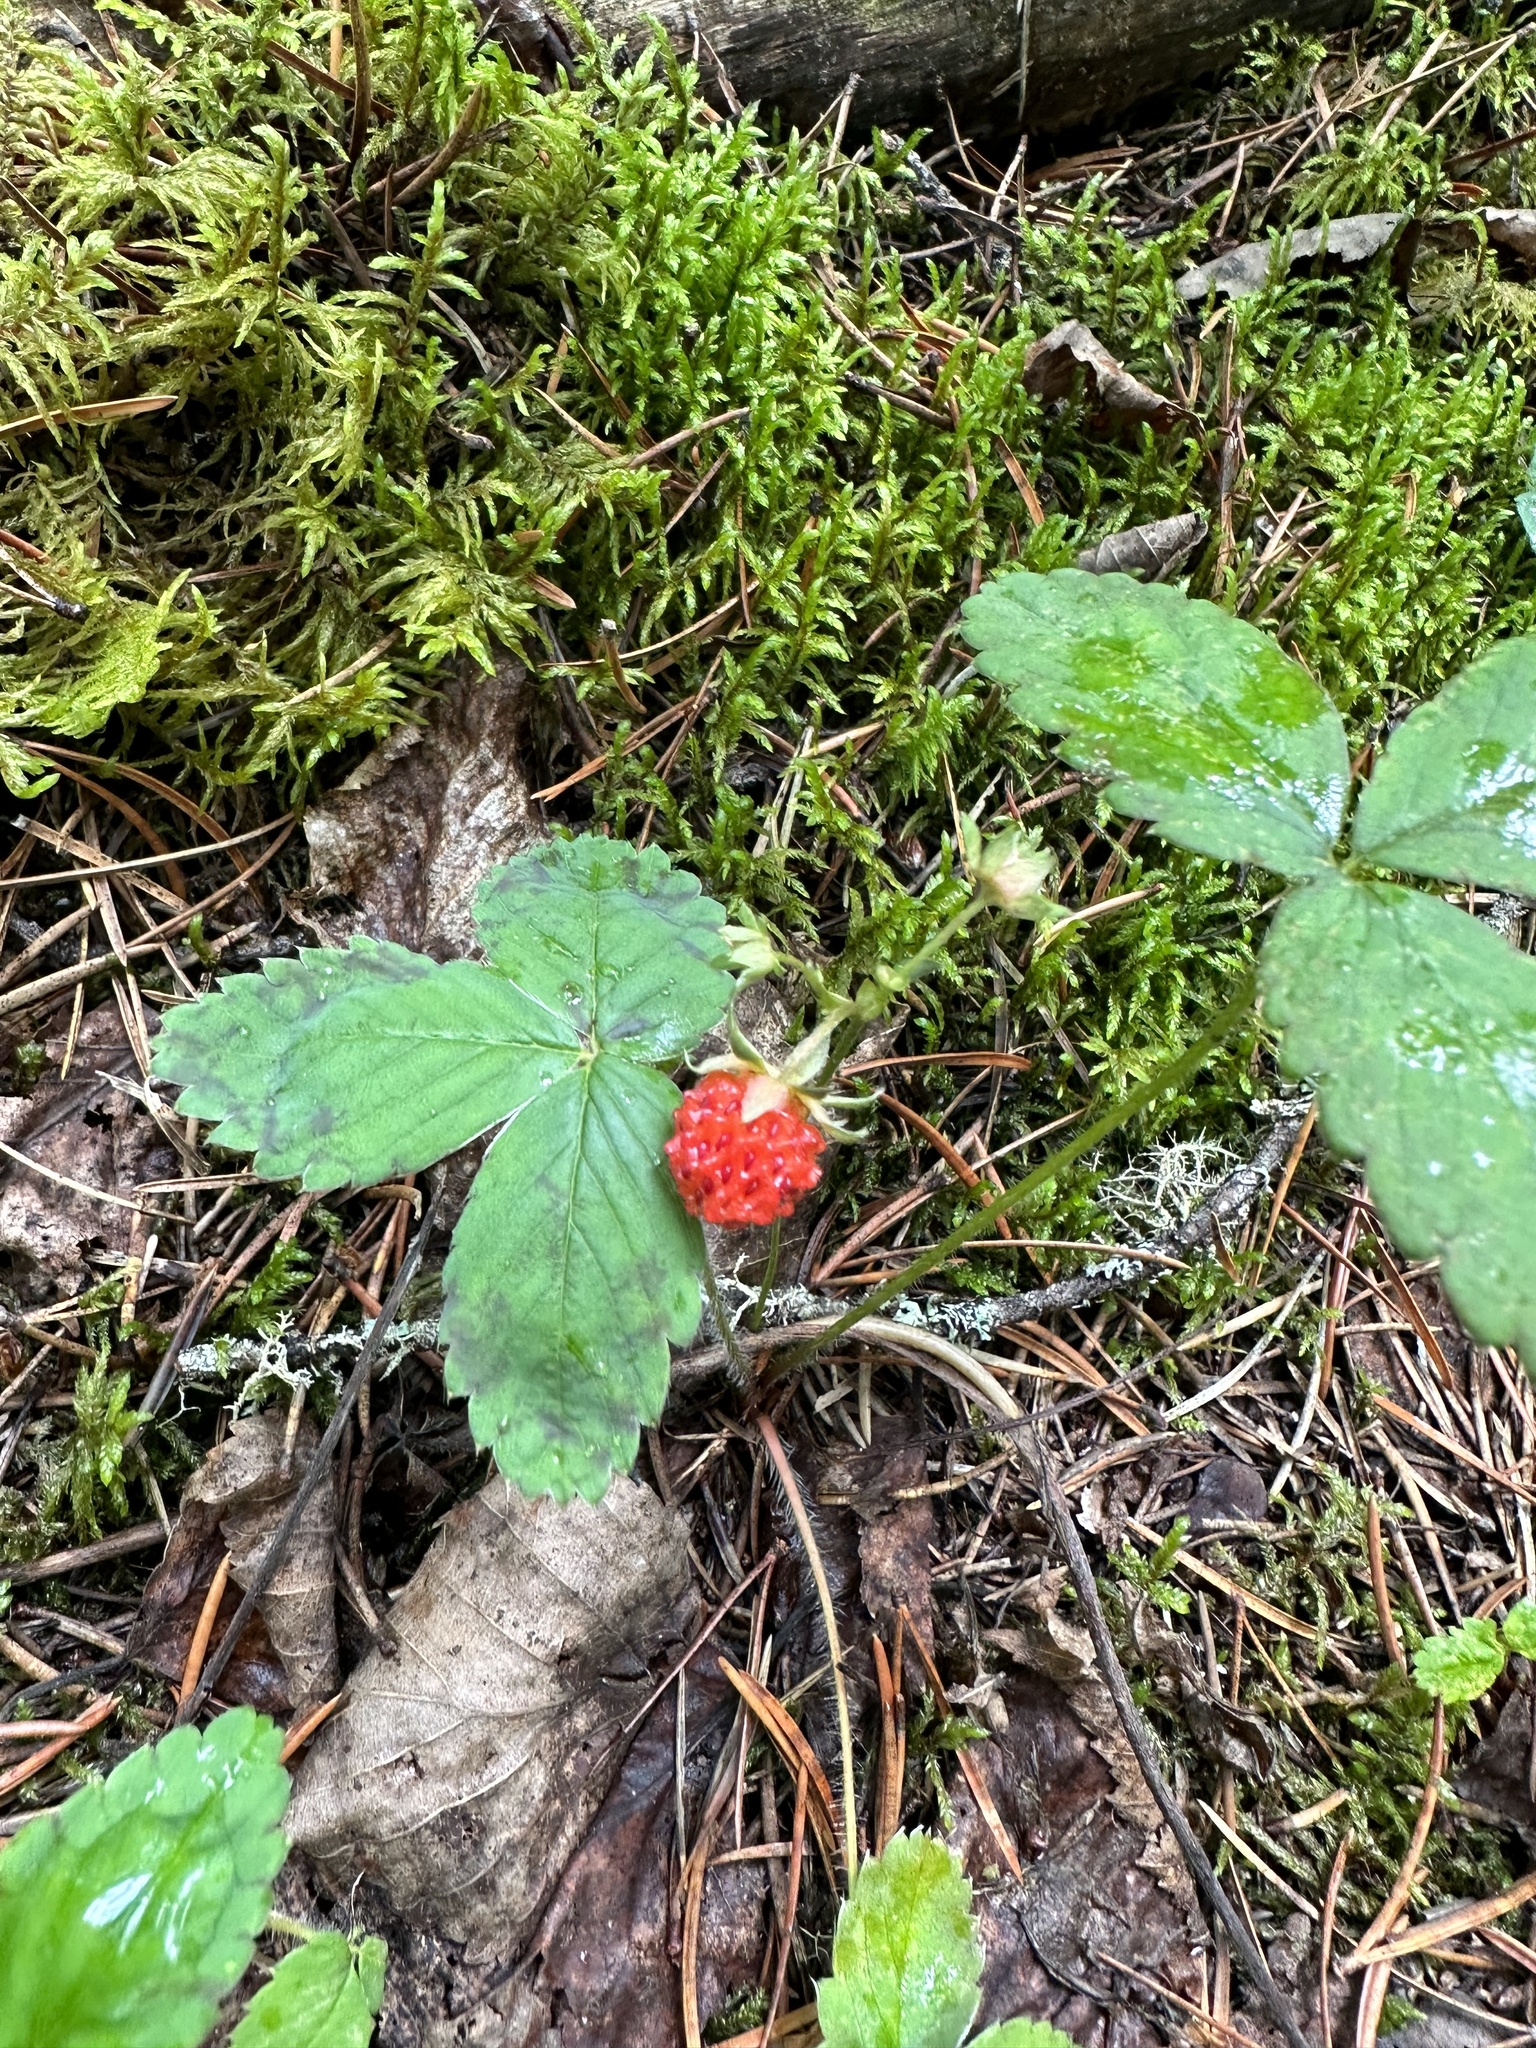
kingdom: Plantae
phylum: Tracheophyta
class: Magnoliopsida
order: Rosales
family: Rosaceae
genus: Fragaria
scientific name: Fragaria virginiana
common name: Thickleaved wild strawberry
